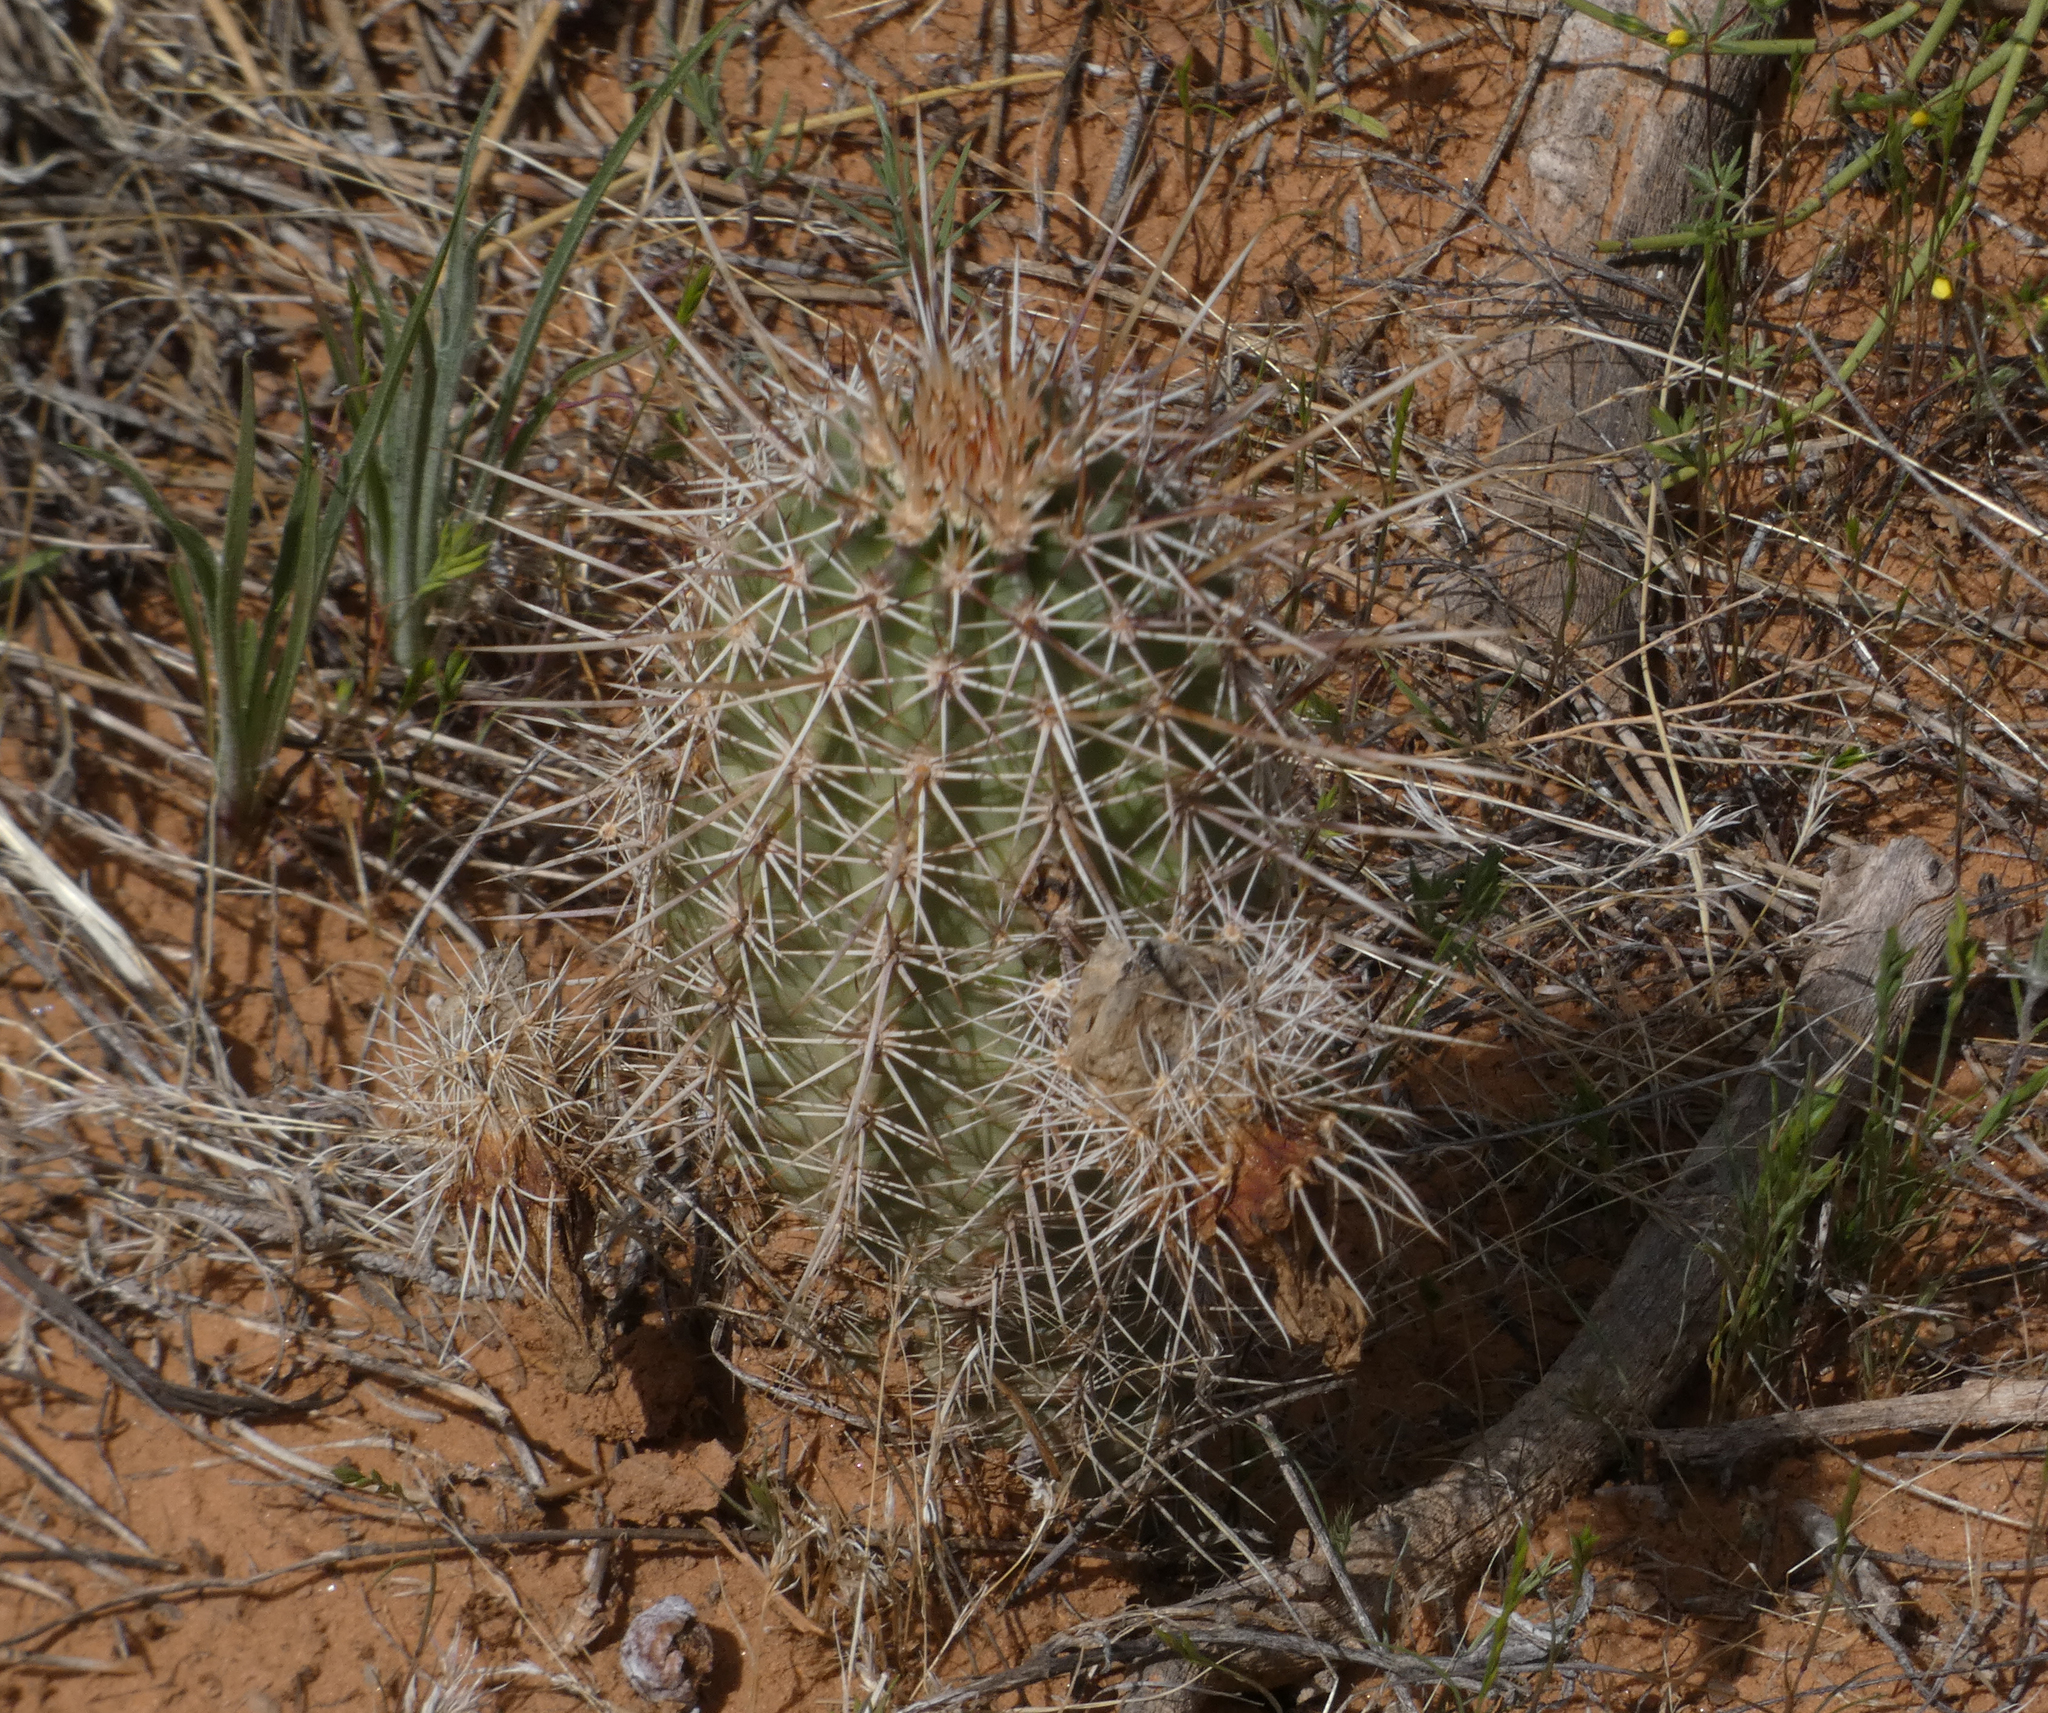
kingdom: Plantae
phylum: Tracheophyta
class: Magnoliopsida
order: Caryophyllales
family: Cactaceae
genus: Echinocereus
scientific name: Echinocereus fasciculatus
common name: Bundle hedgehog
